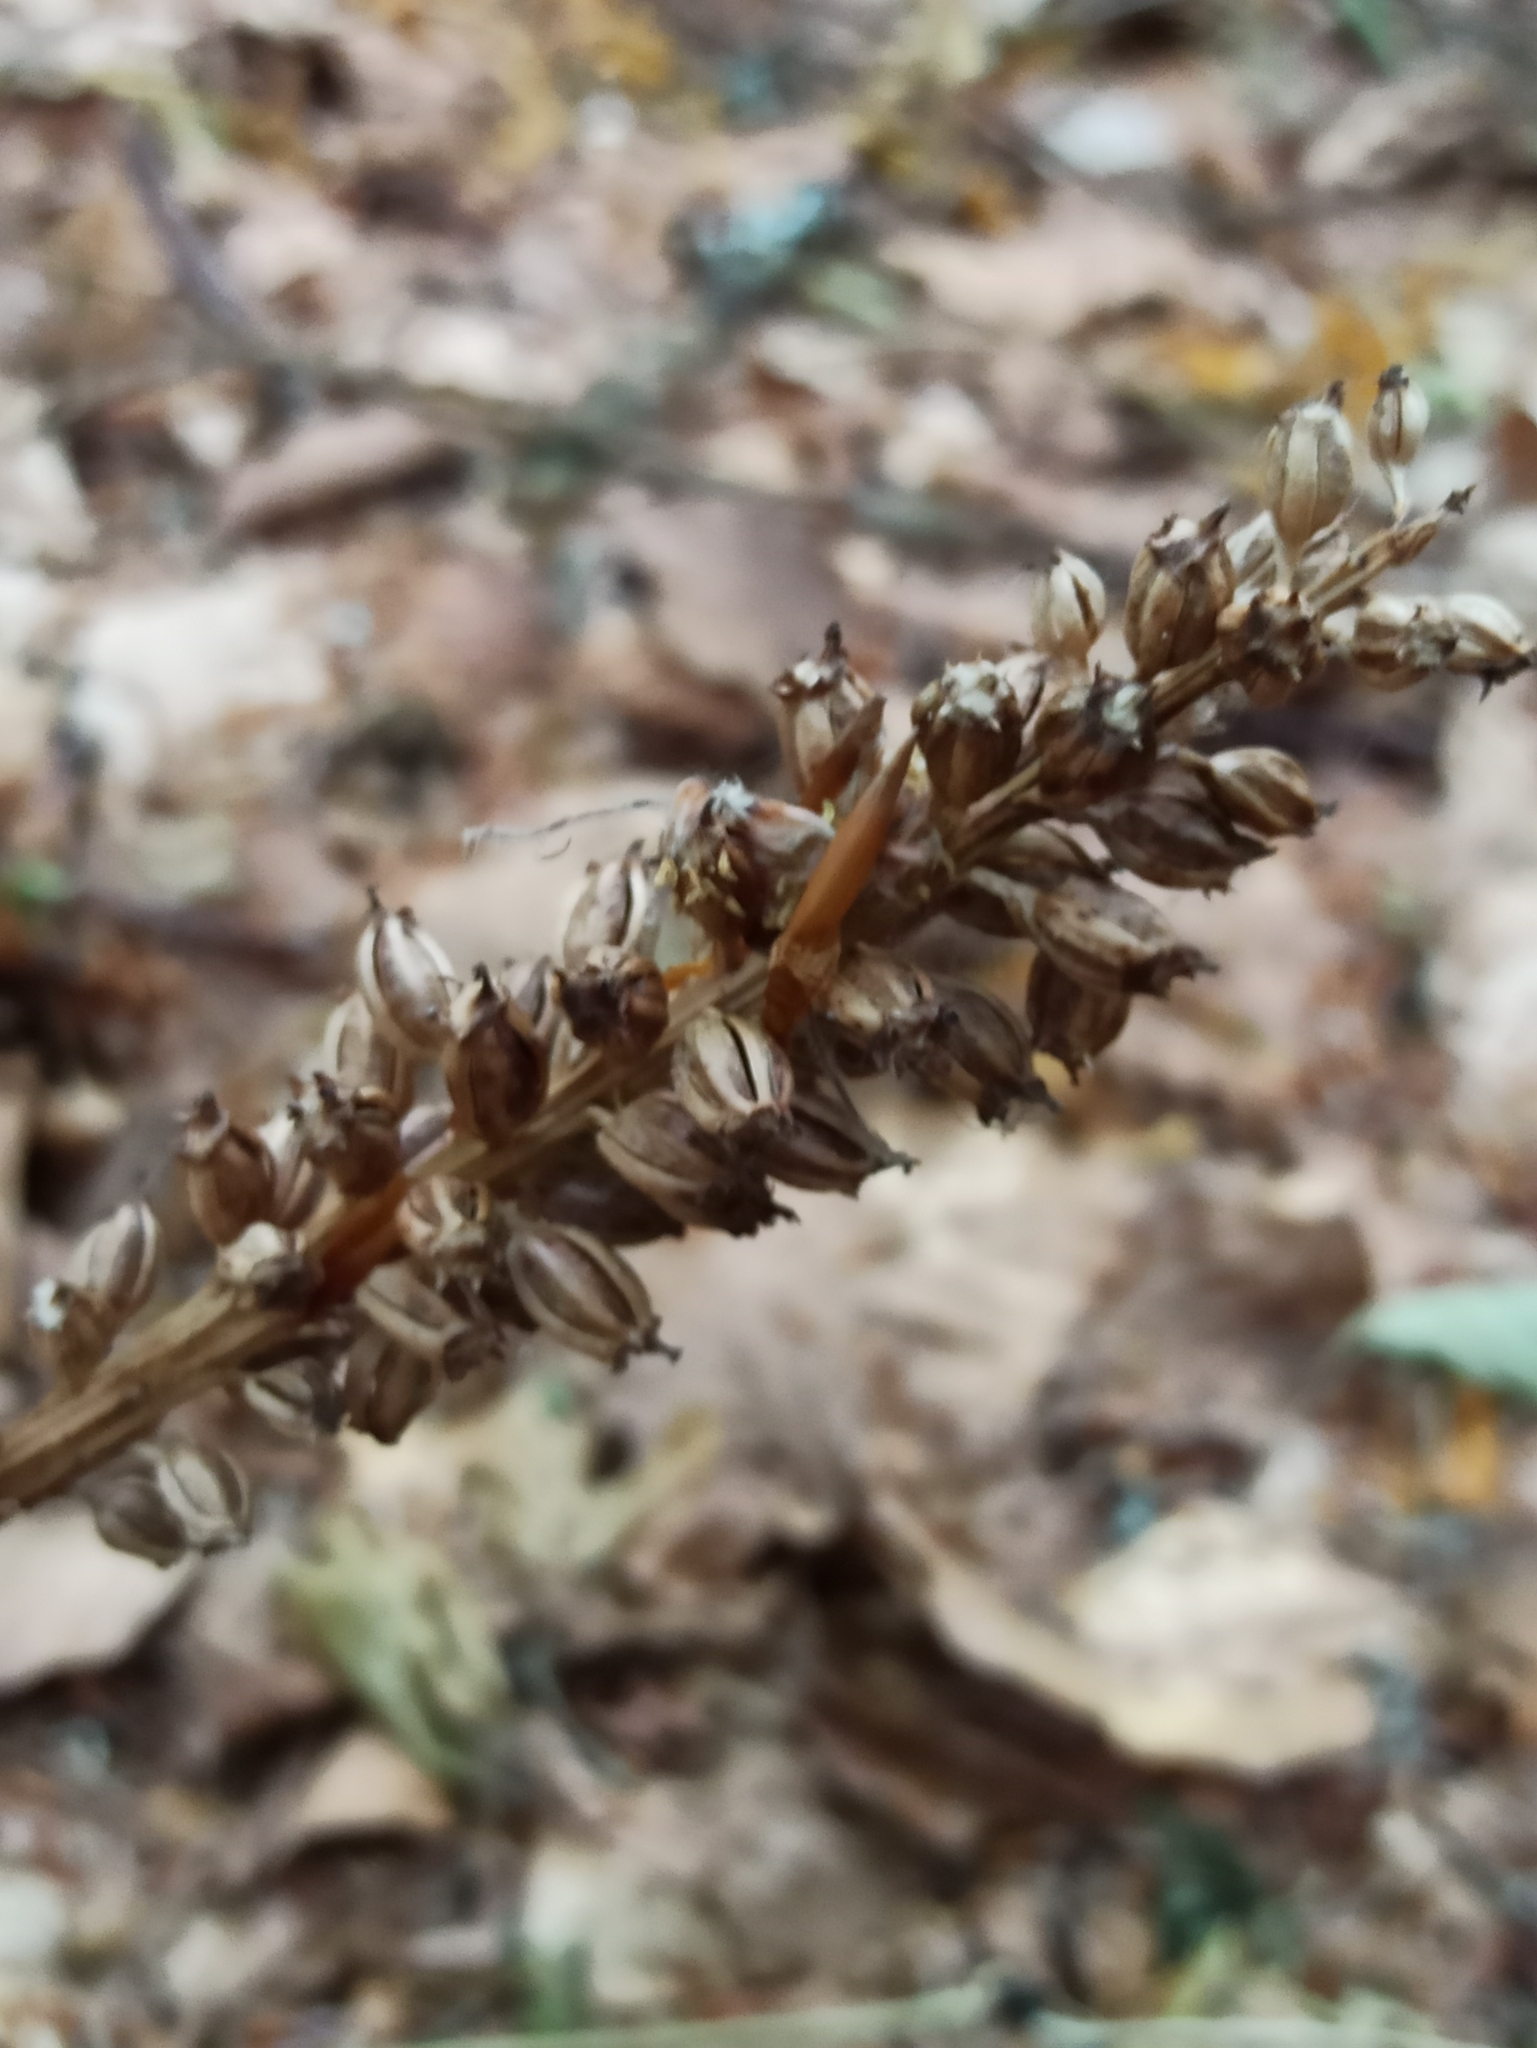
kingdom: Plantae
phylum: Tracheophyta
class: Liliopsida
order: Asparagales
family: Orchidaceae
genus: Neottia
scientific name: Neottia nidus-avis
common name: Bird's-nest orchid
